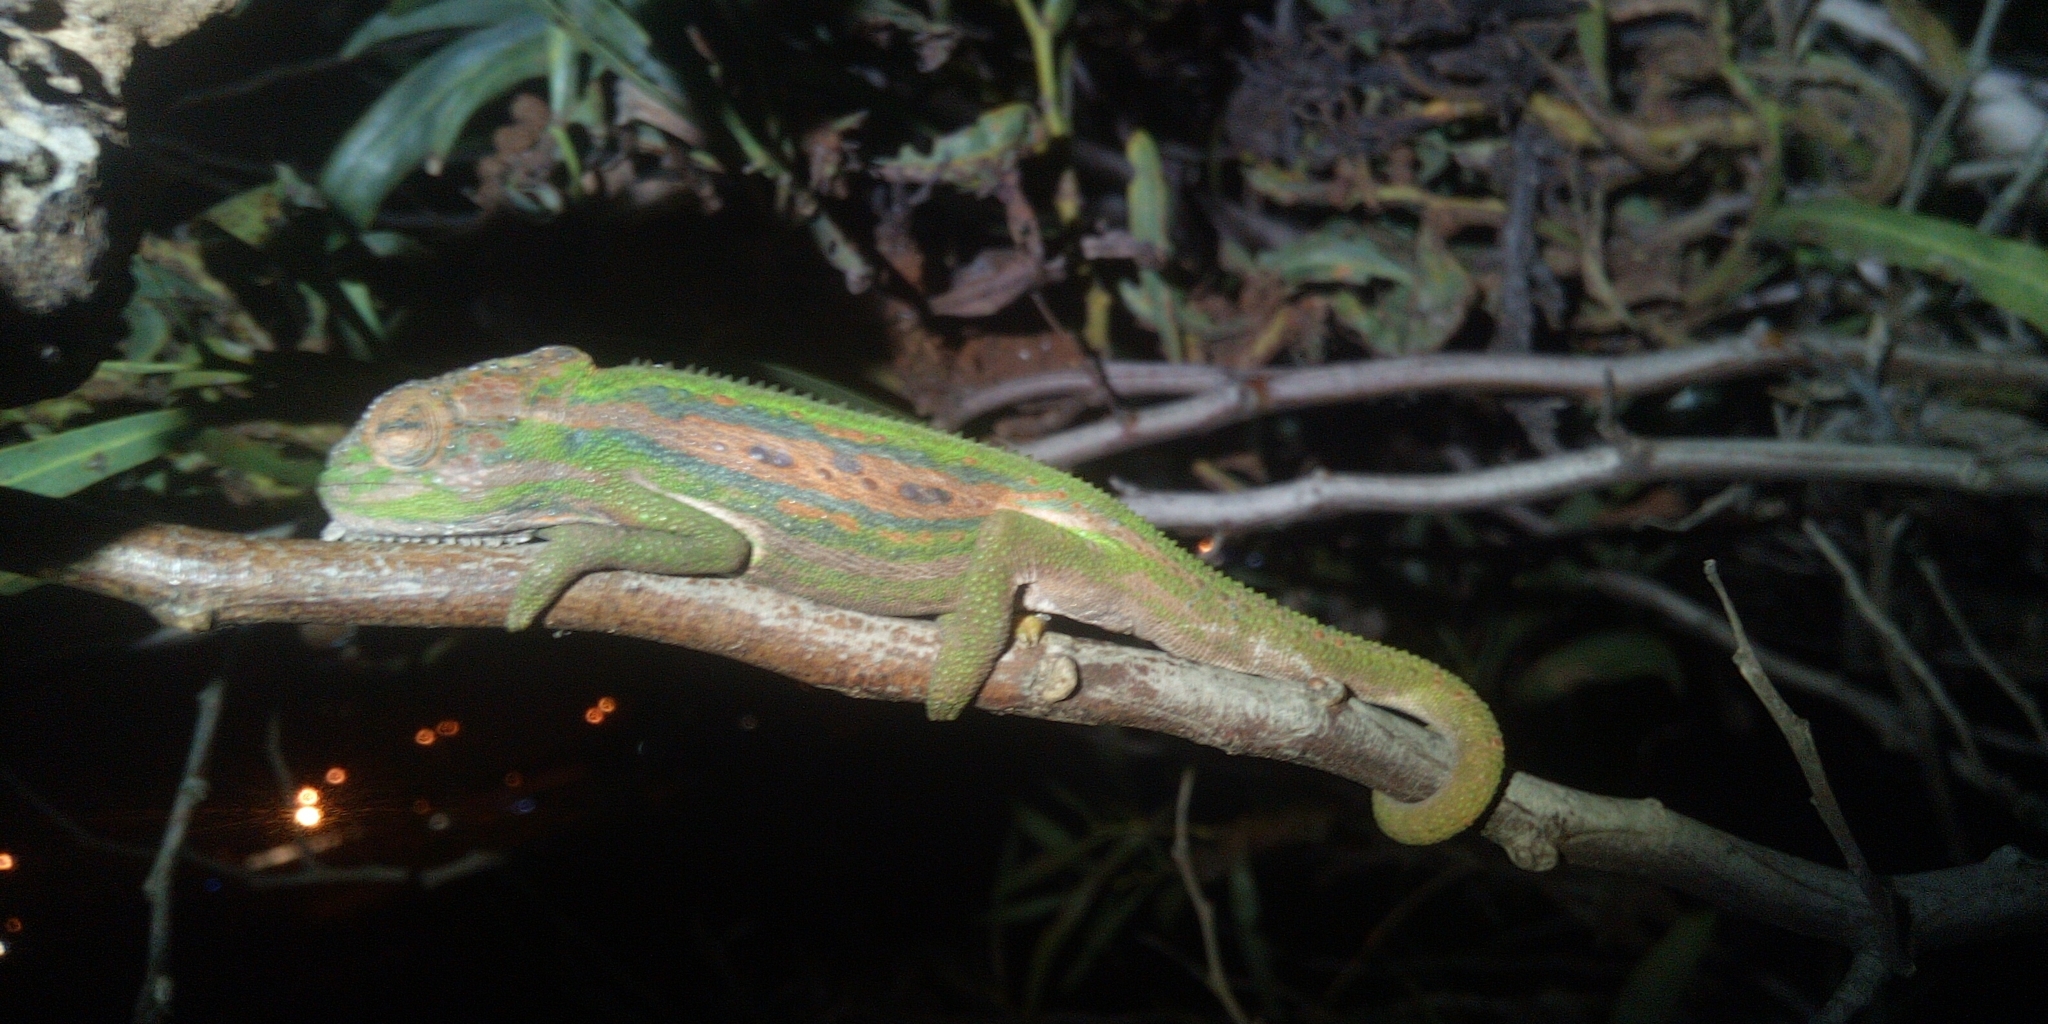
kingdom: Animalia
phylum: Chordata
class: Squamata
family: Chamaeleonidae
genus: Bradypodion
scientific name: Bradypodion pumilum
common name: Cape dwarf chameleon
